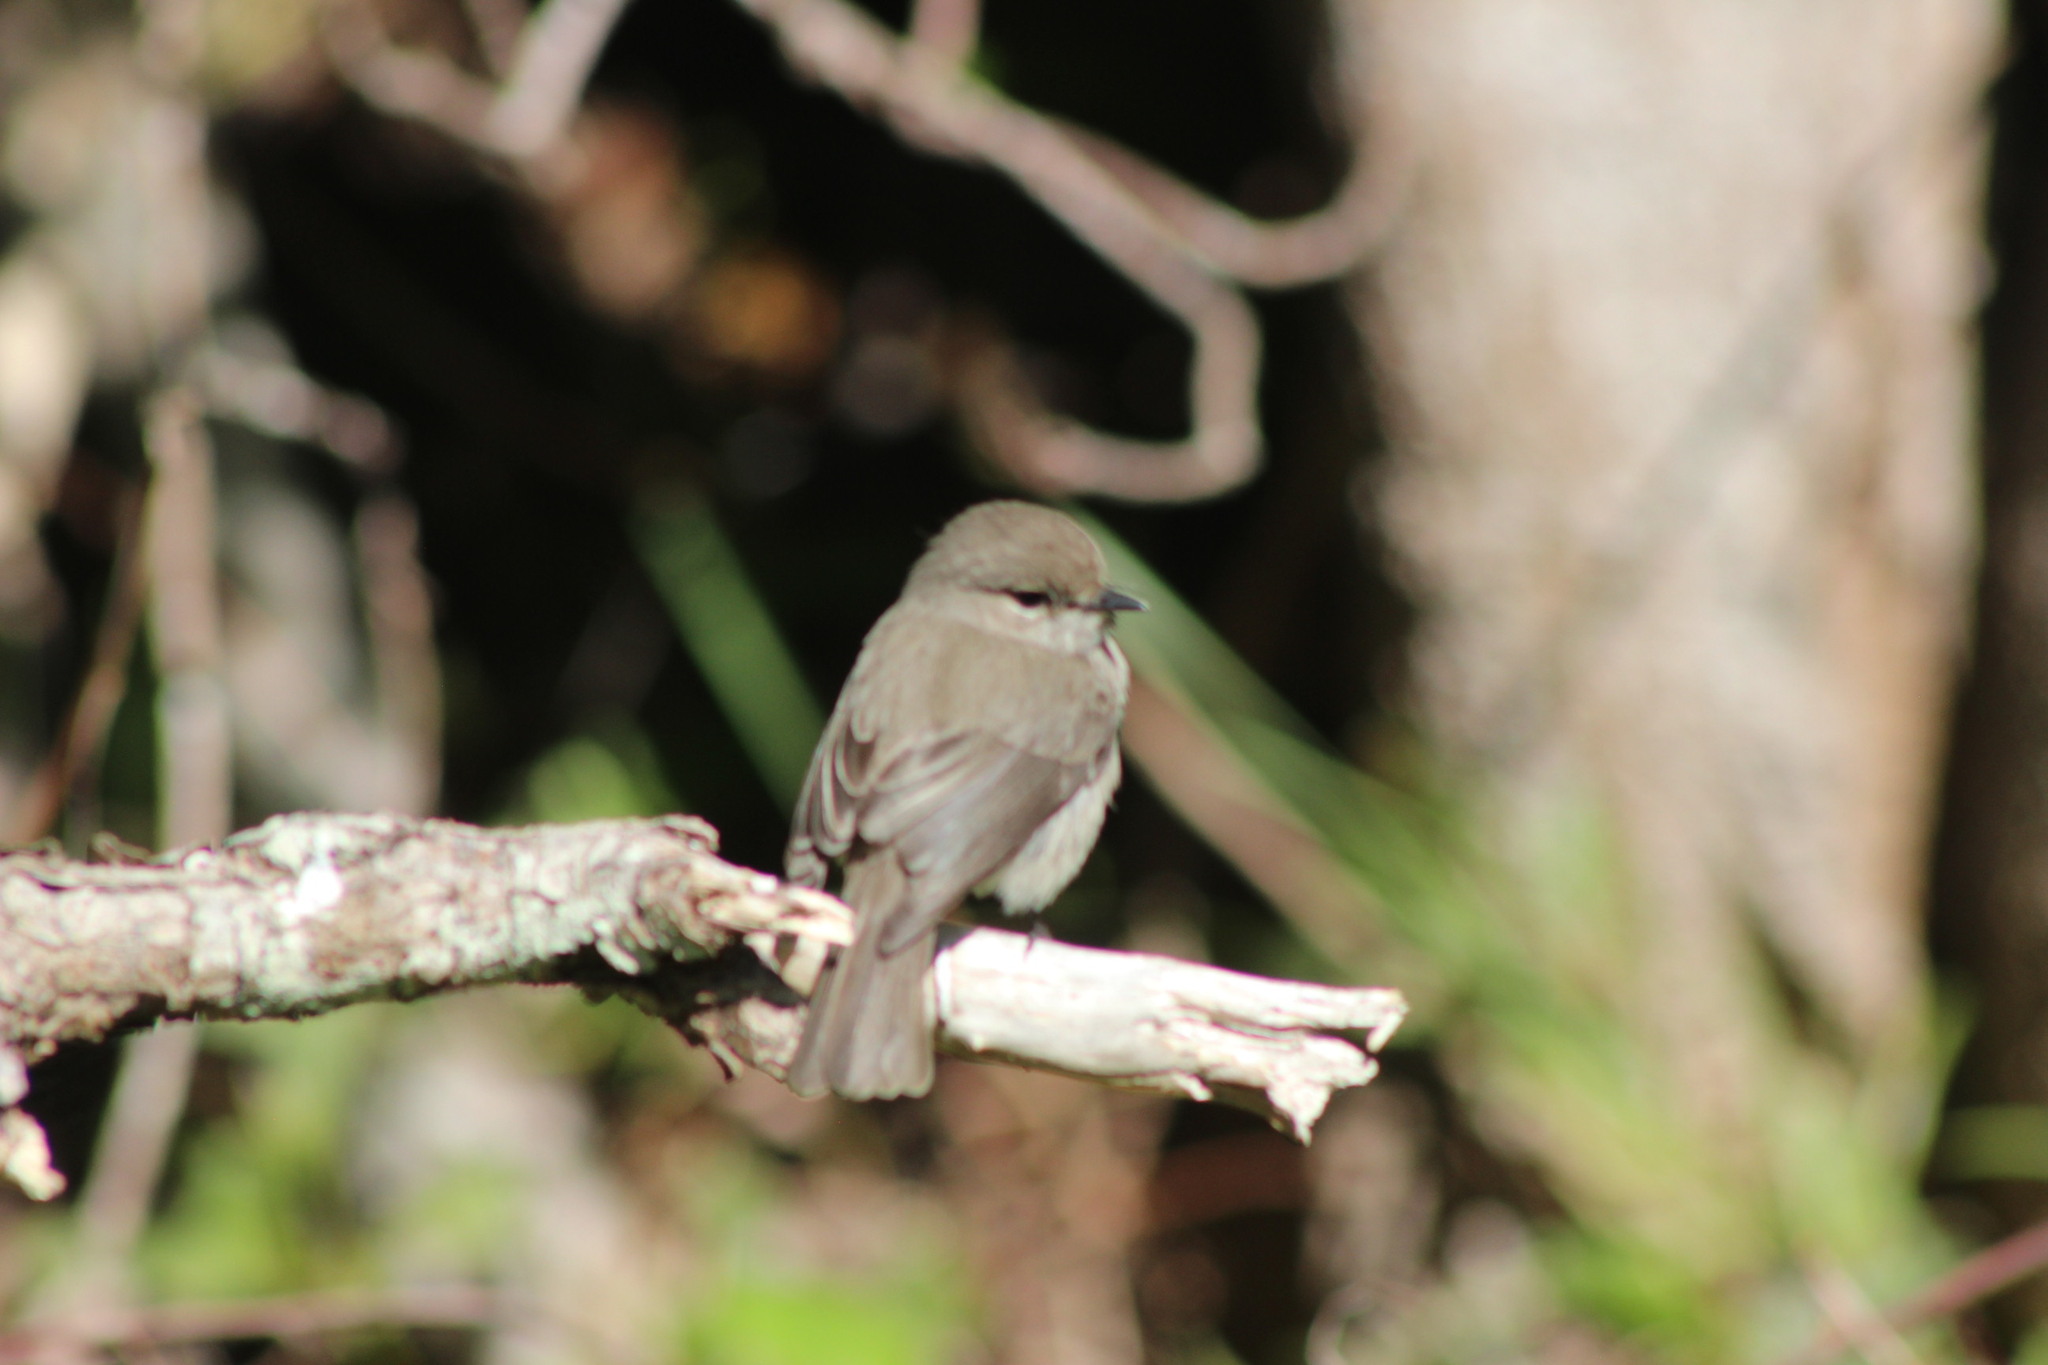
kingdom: Animalia
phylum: Chordata
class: Aves
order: Passeriformes
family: Muscicapidae
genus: Muscicapa
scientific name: Muscicapa adusta
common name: African dusky flycatcher
